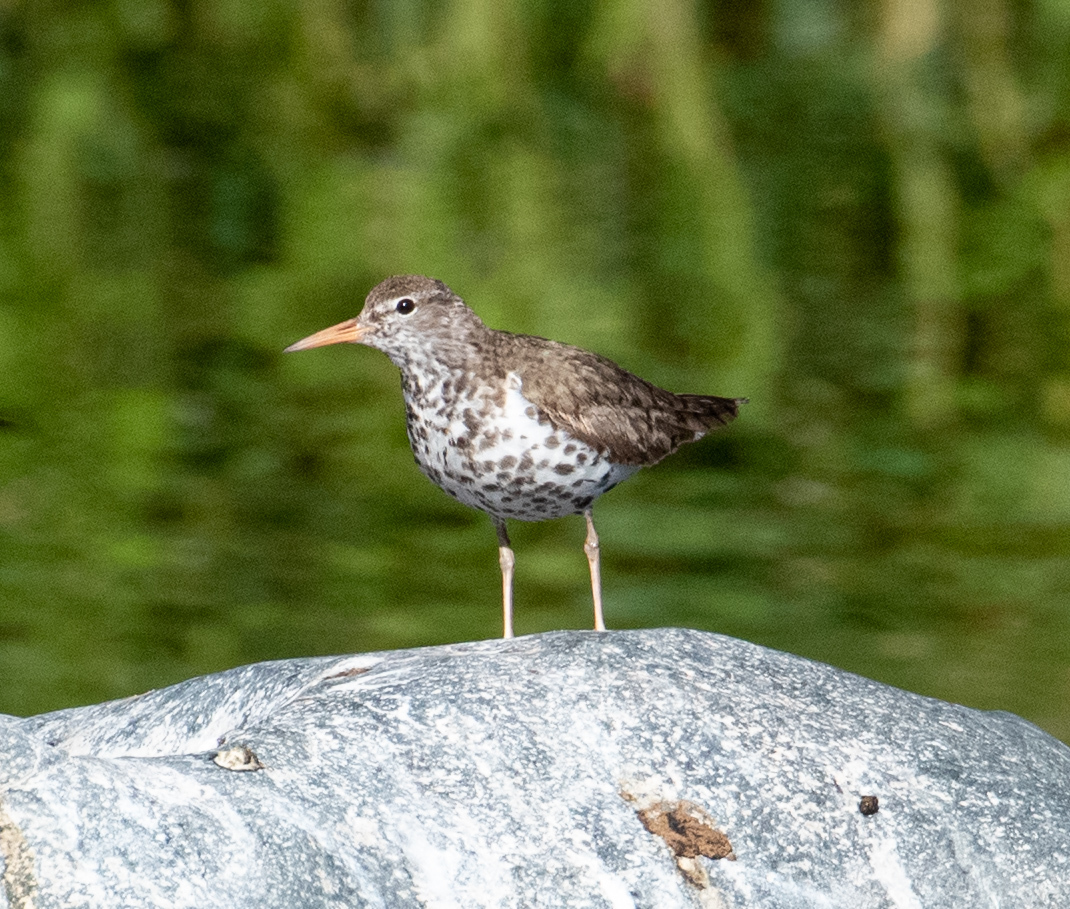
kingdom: Animalia
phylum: Chordata
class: Aves
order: Charadriiformes
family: Scolopacidae
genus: Actitis
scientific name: Actitis macularius
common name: Spotted sandpiper
